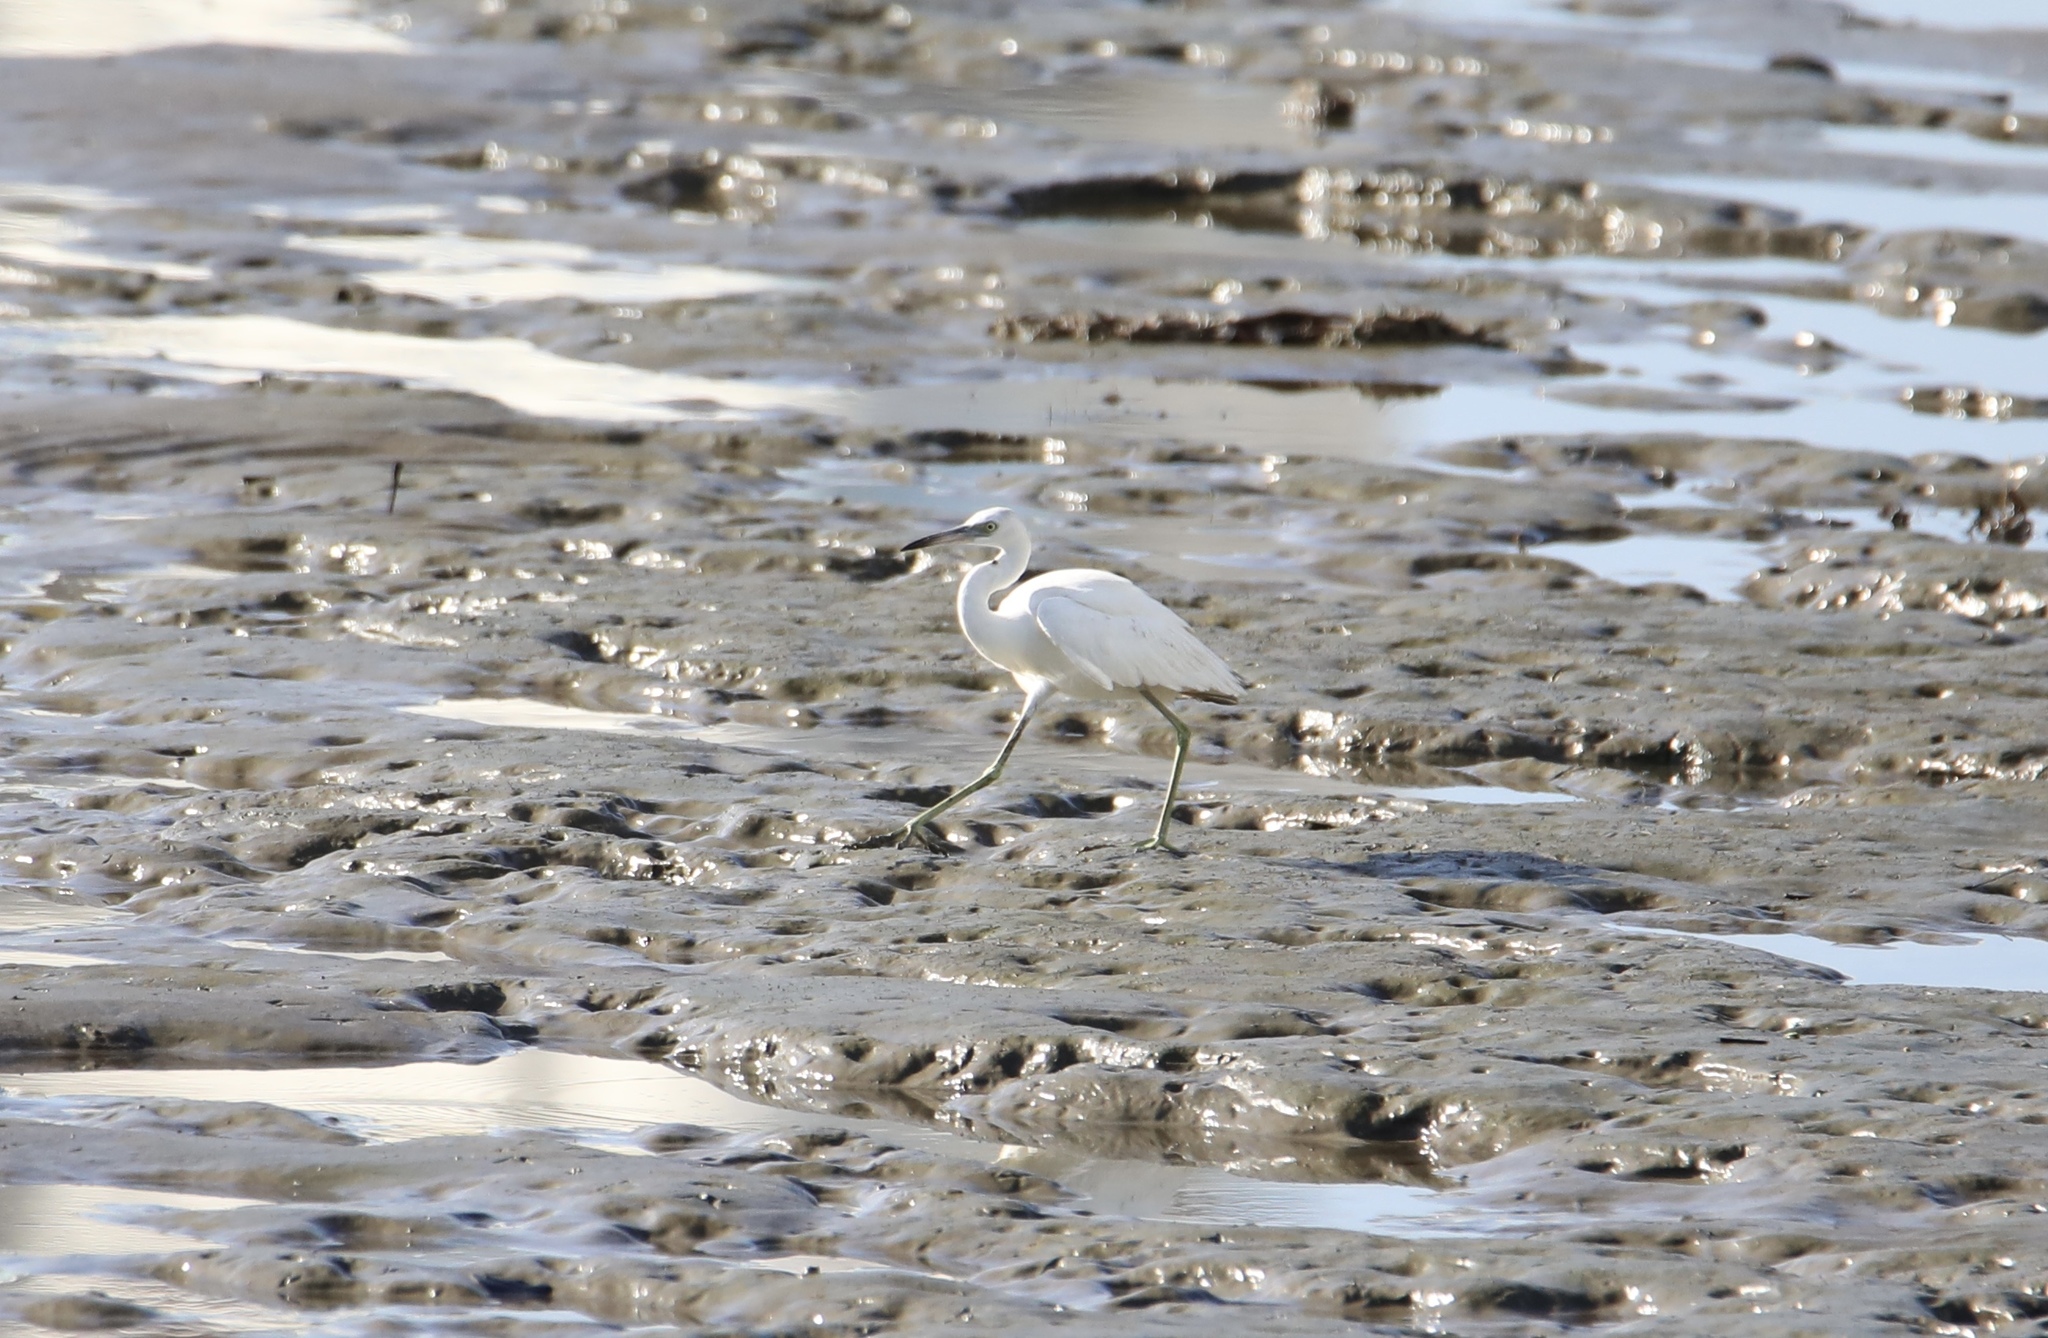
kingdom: Animalia
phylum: Chordata
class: Aves
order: Pelecaniformes
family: Ardeidae
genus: Egretta
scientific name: Egretta caerulea
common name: Little blue heron
